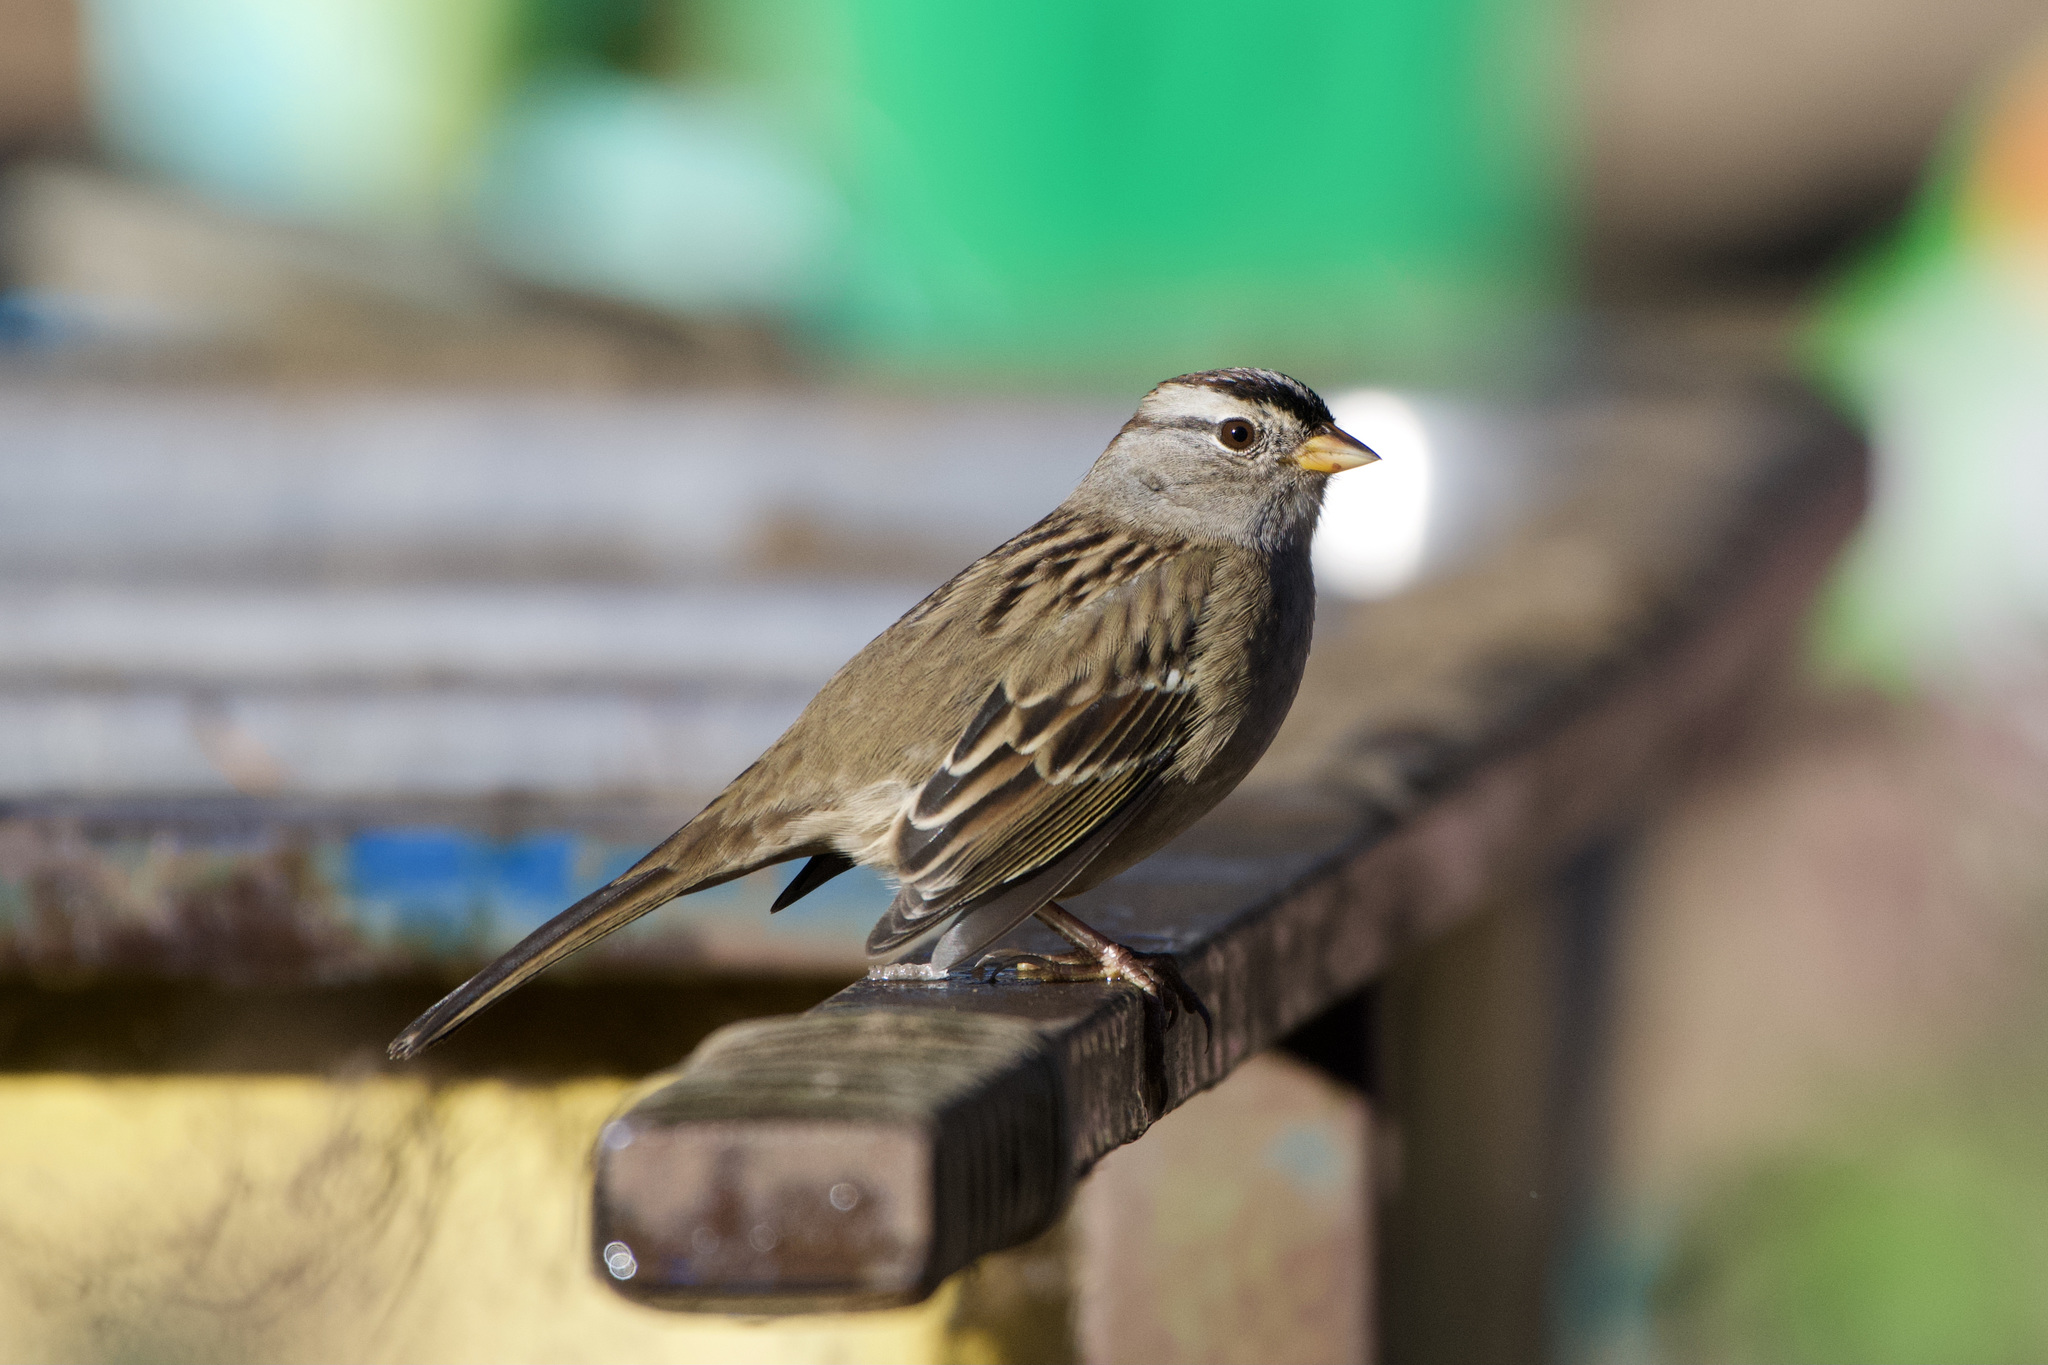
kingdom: Animalia
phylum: Chordata
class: Aves
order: Passeriformes
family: Passerellidae
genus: Zonotrichia
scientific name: Zonotrichia leucophrys
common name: White-crowned sparrow
